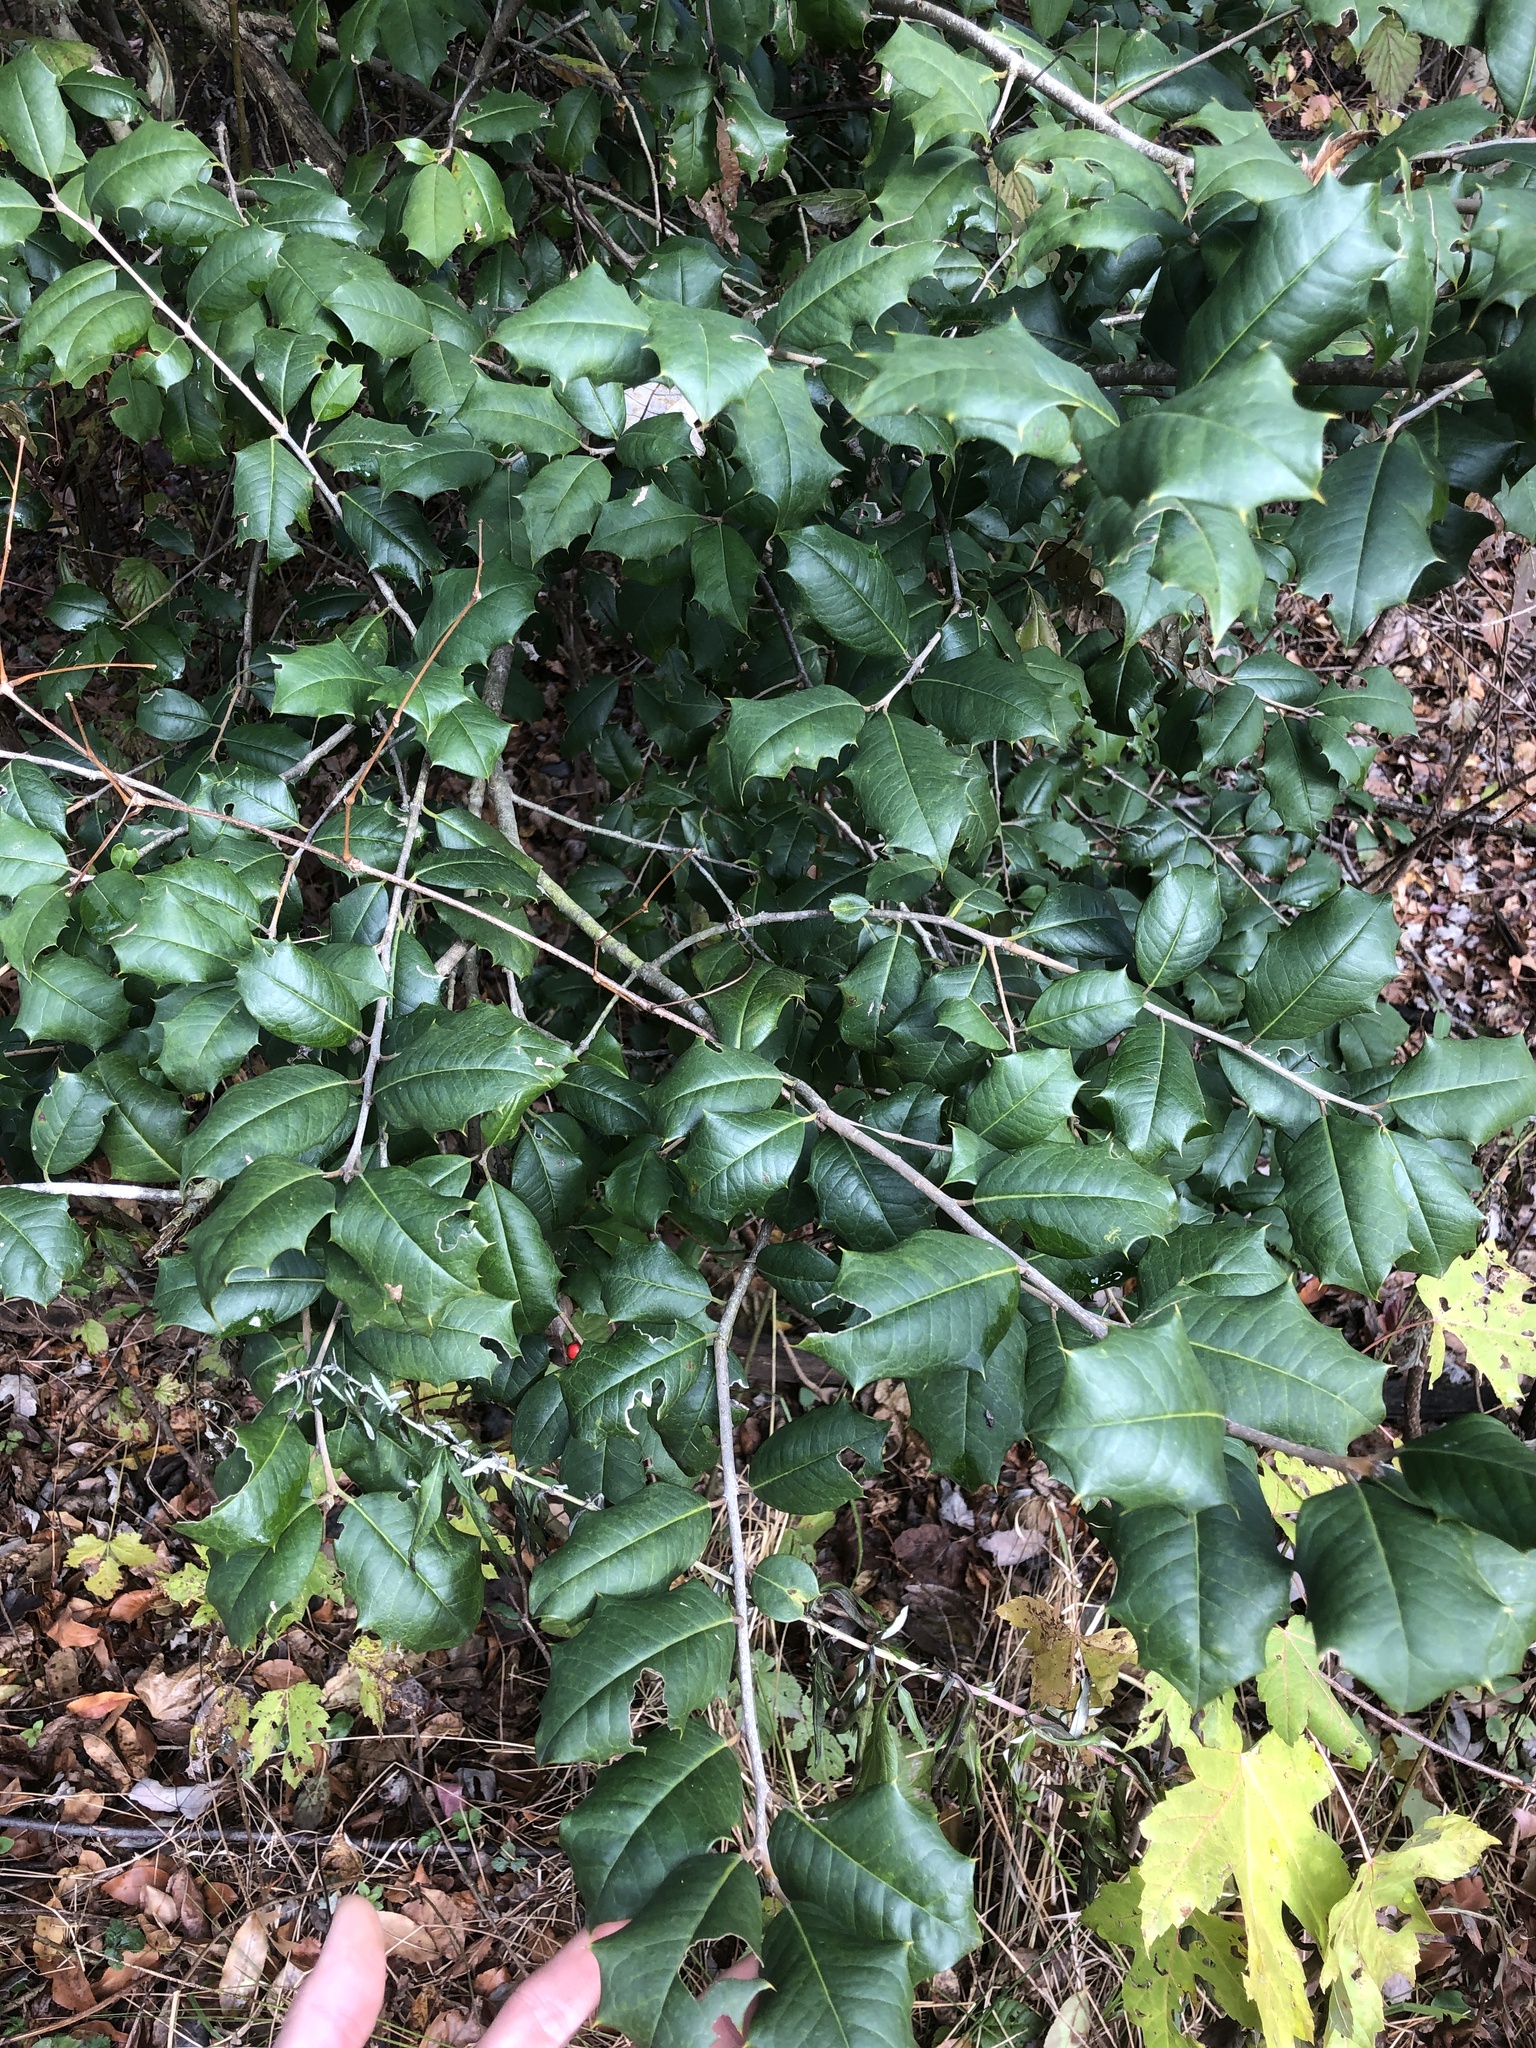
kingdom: Plantae
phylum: Tracheophyta
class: Magnoliopsida
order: Aquifoliales
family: Aquifoliaceae
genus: Ilex
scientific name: Ilex opaca
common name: American holly
